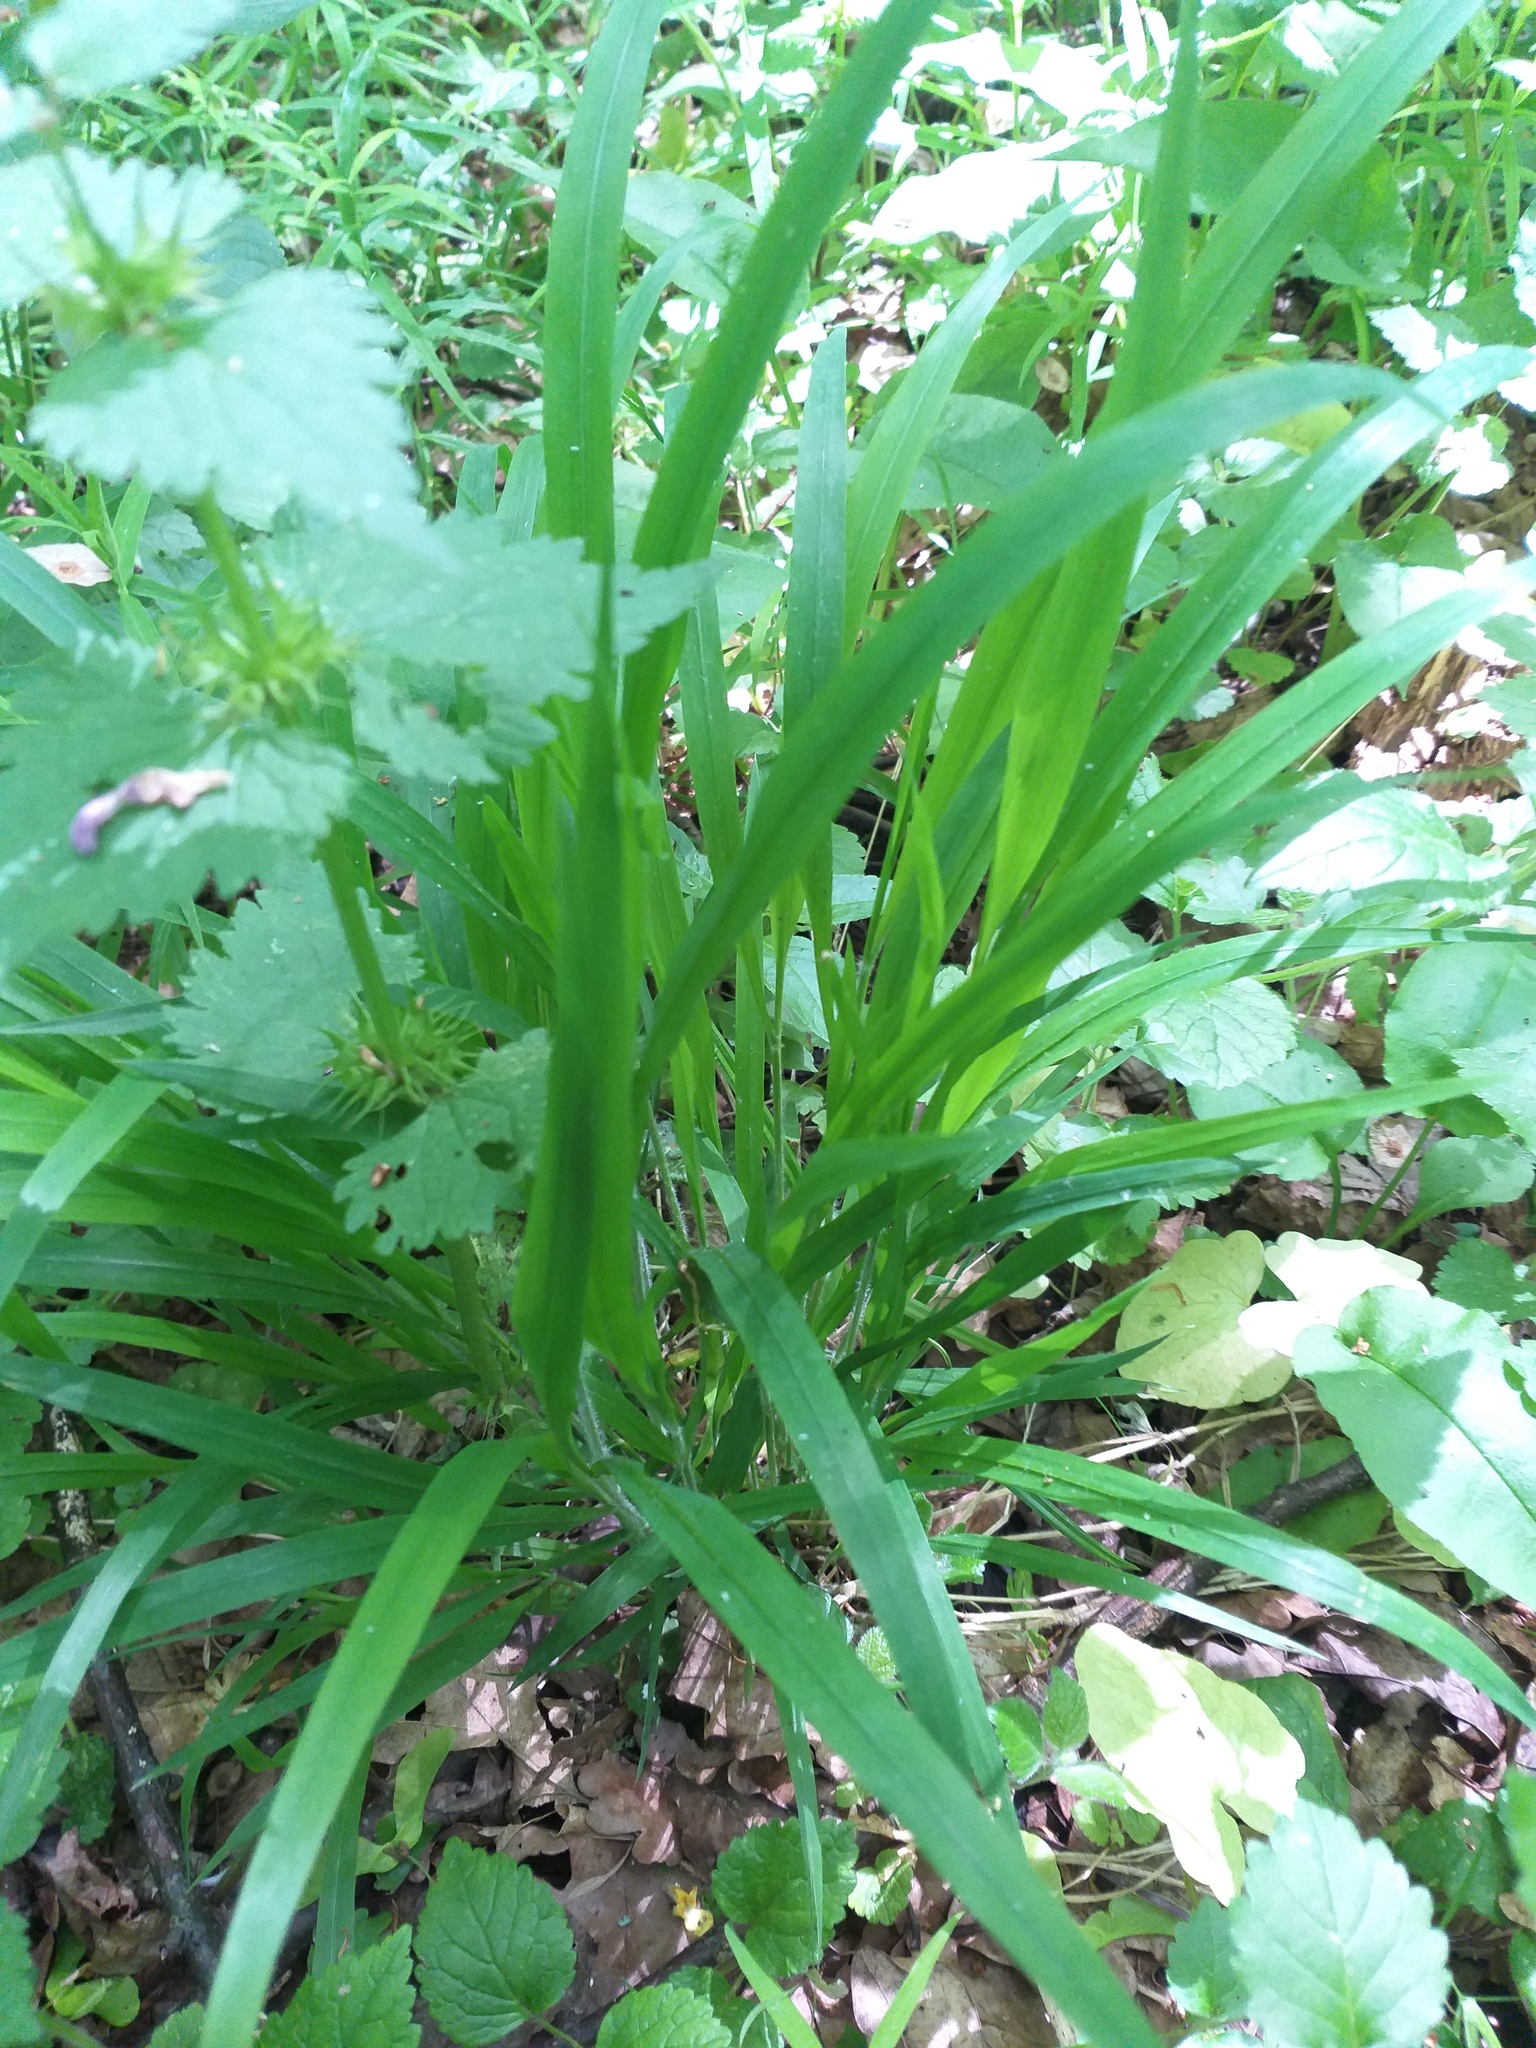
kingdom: Plantae
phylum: Tracheophyta
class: Liliopsida
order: Poales
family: Poaceae
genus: Brachypodium
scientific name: Brachypodium sylvaticum
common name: False-brome
